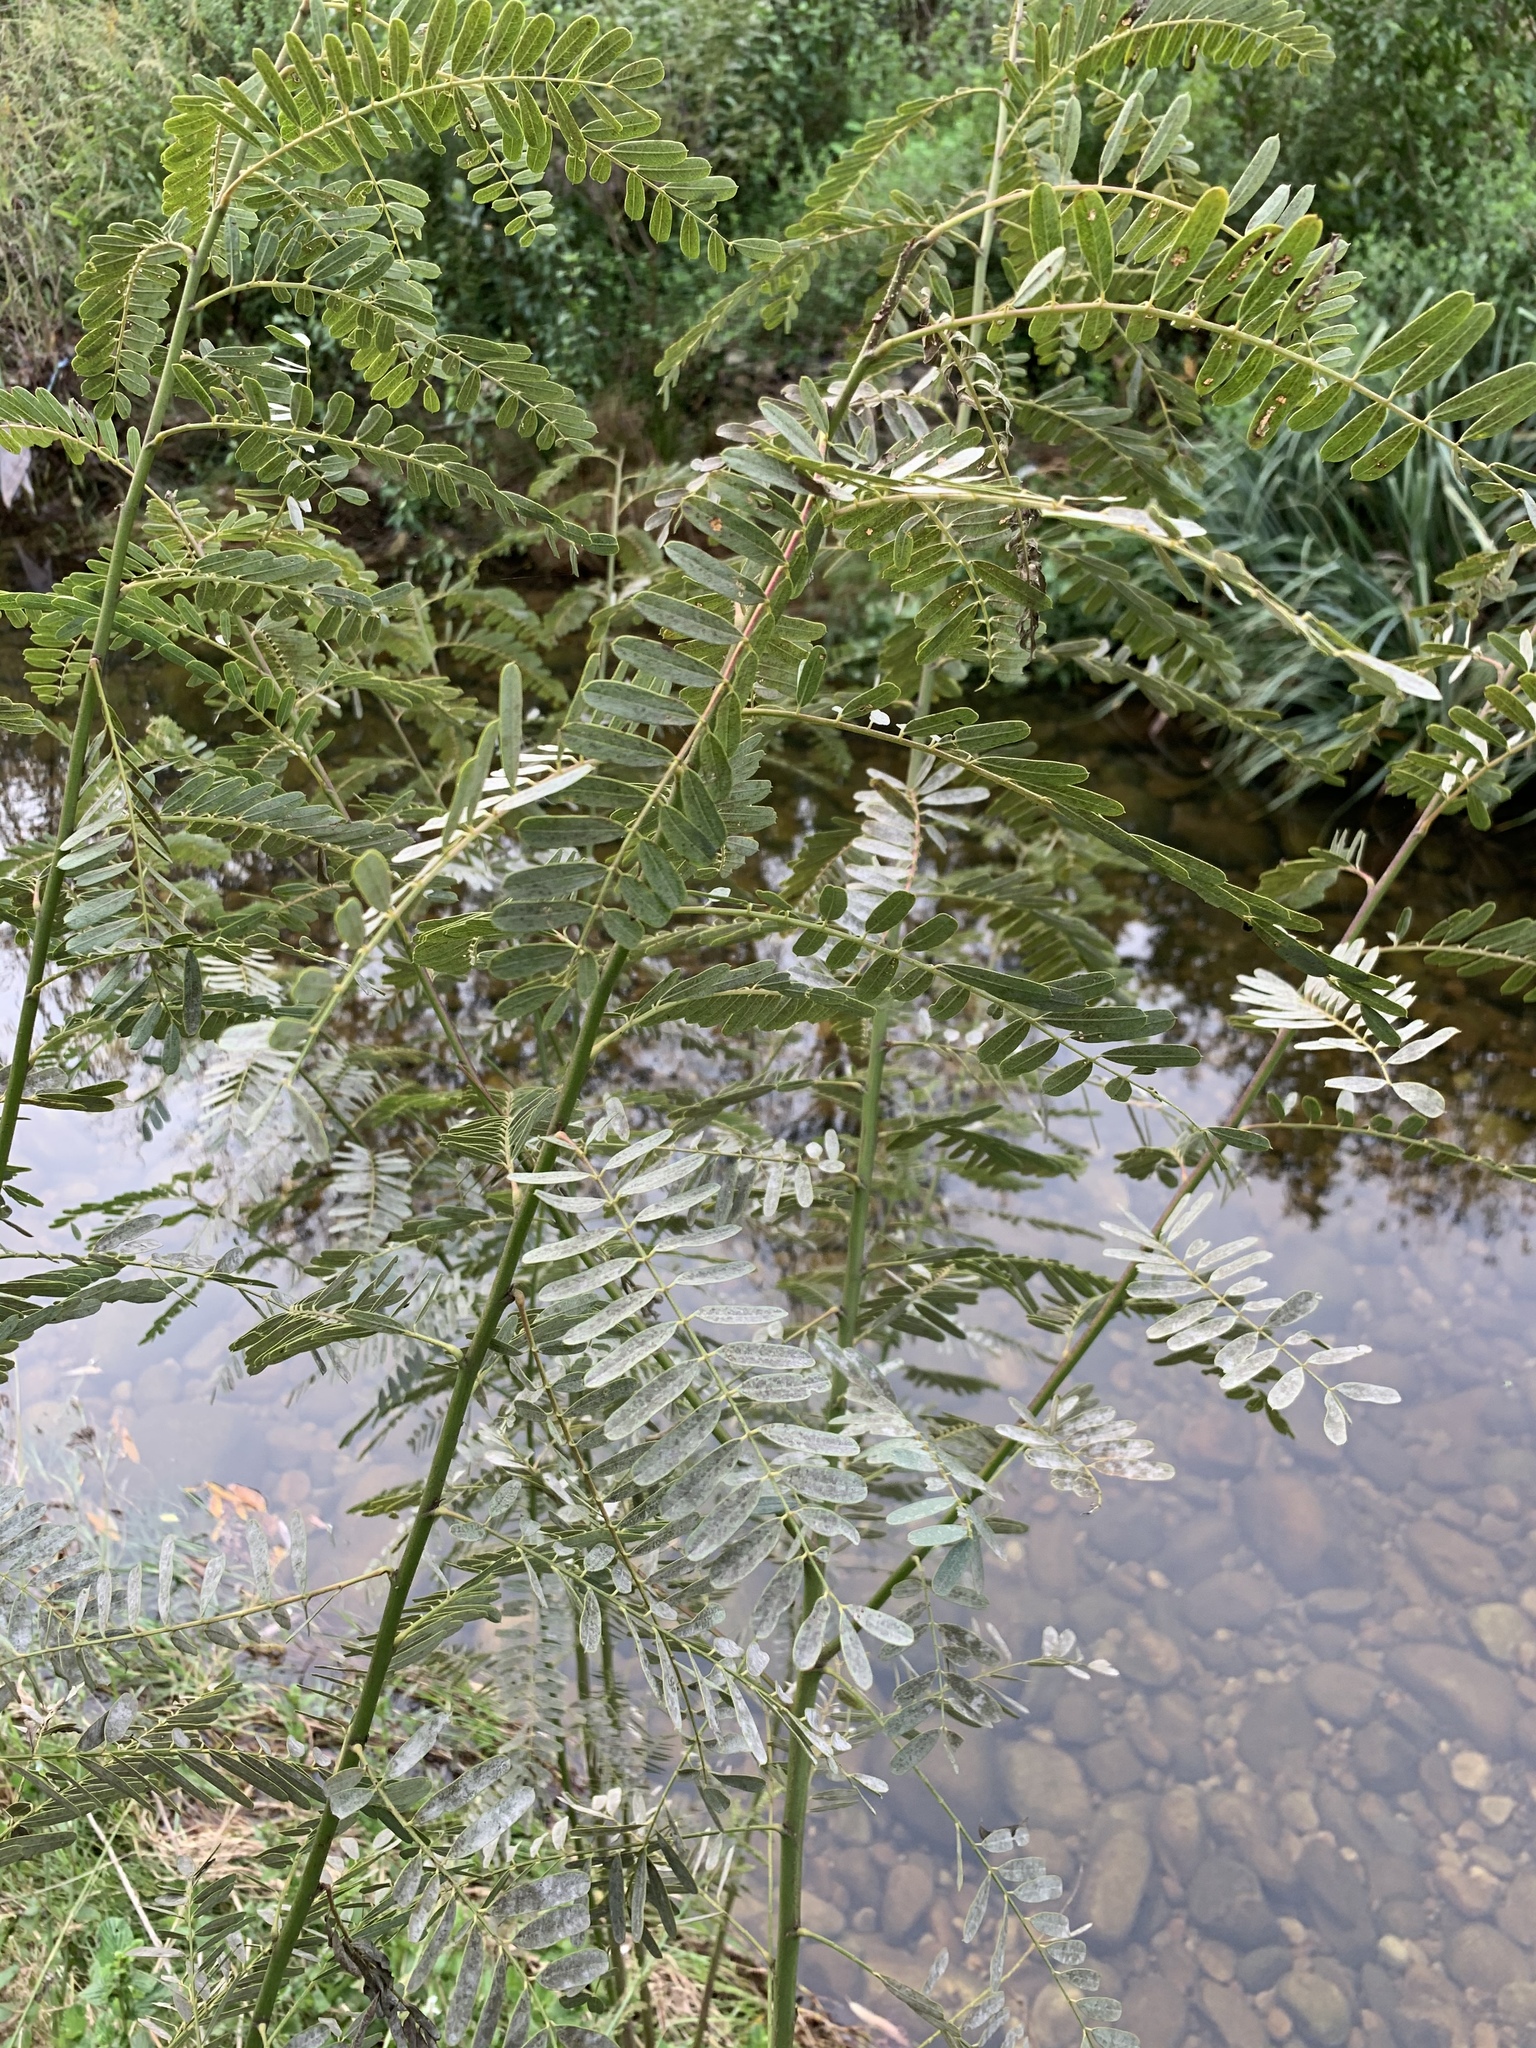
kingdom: Plantae
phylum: Tracheophyta
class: Magnoliopsida
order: Fabales
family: Fabaceae
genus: Sesbania
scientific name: Sesbania punicea
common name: Rattlebox
